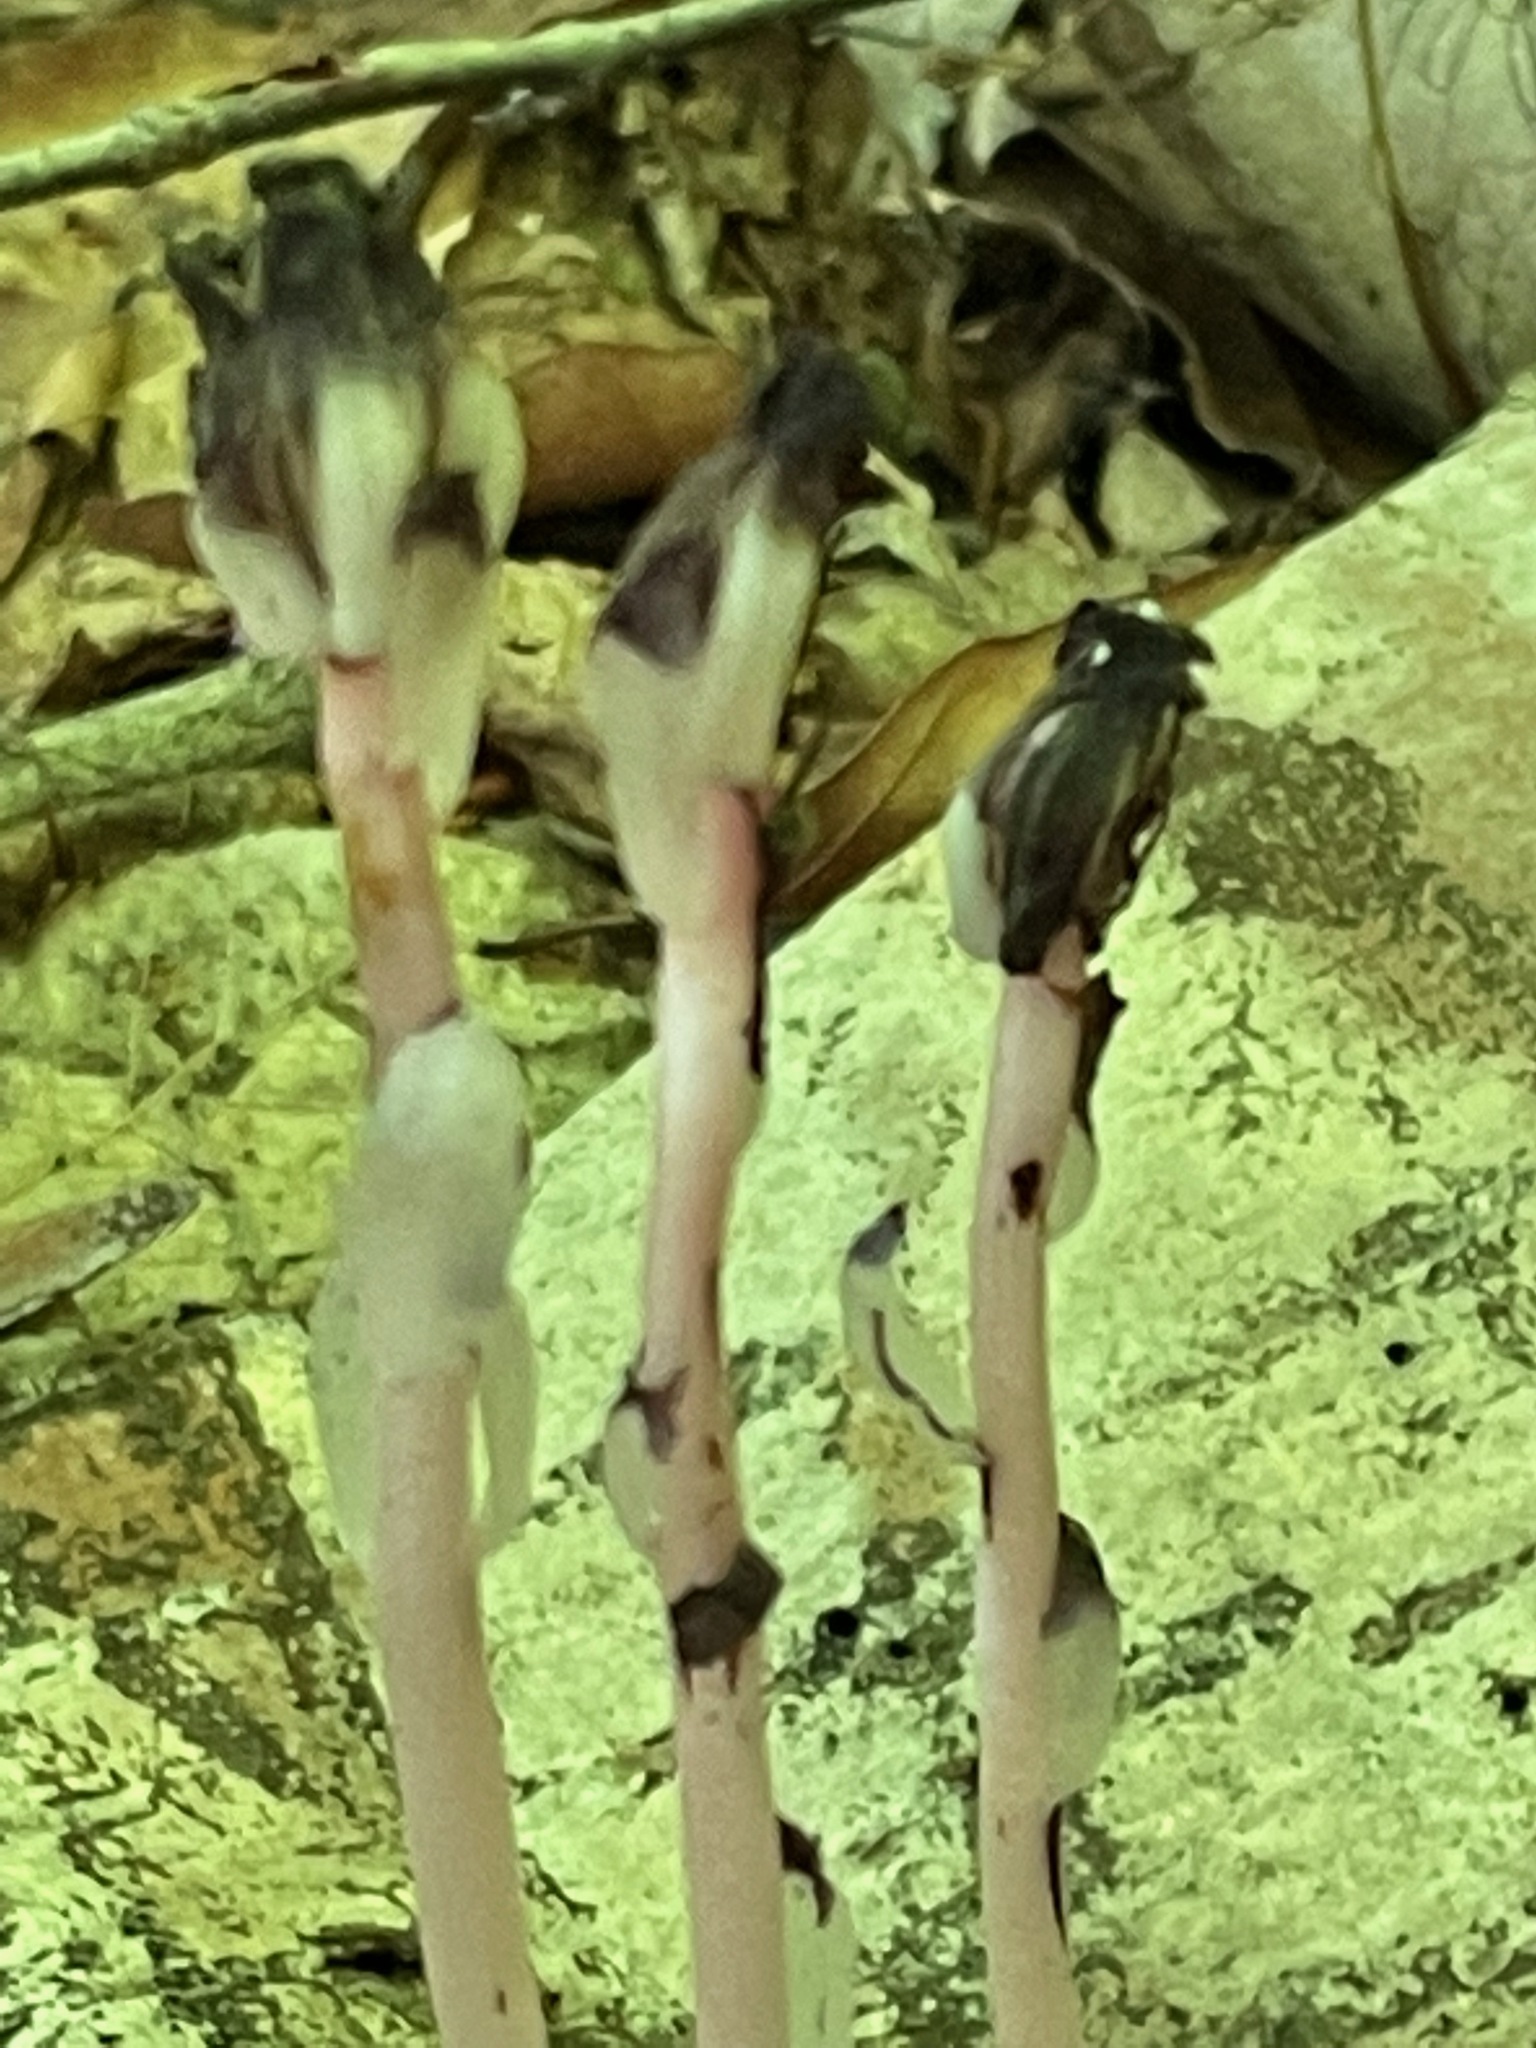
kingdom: Plantae
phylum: Tracheophyta
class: Magnoliopsida
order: Ericales
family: Ericaceae
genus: Monotropa
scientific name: Monotropa uniflora
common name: Convulsion root
